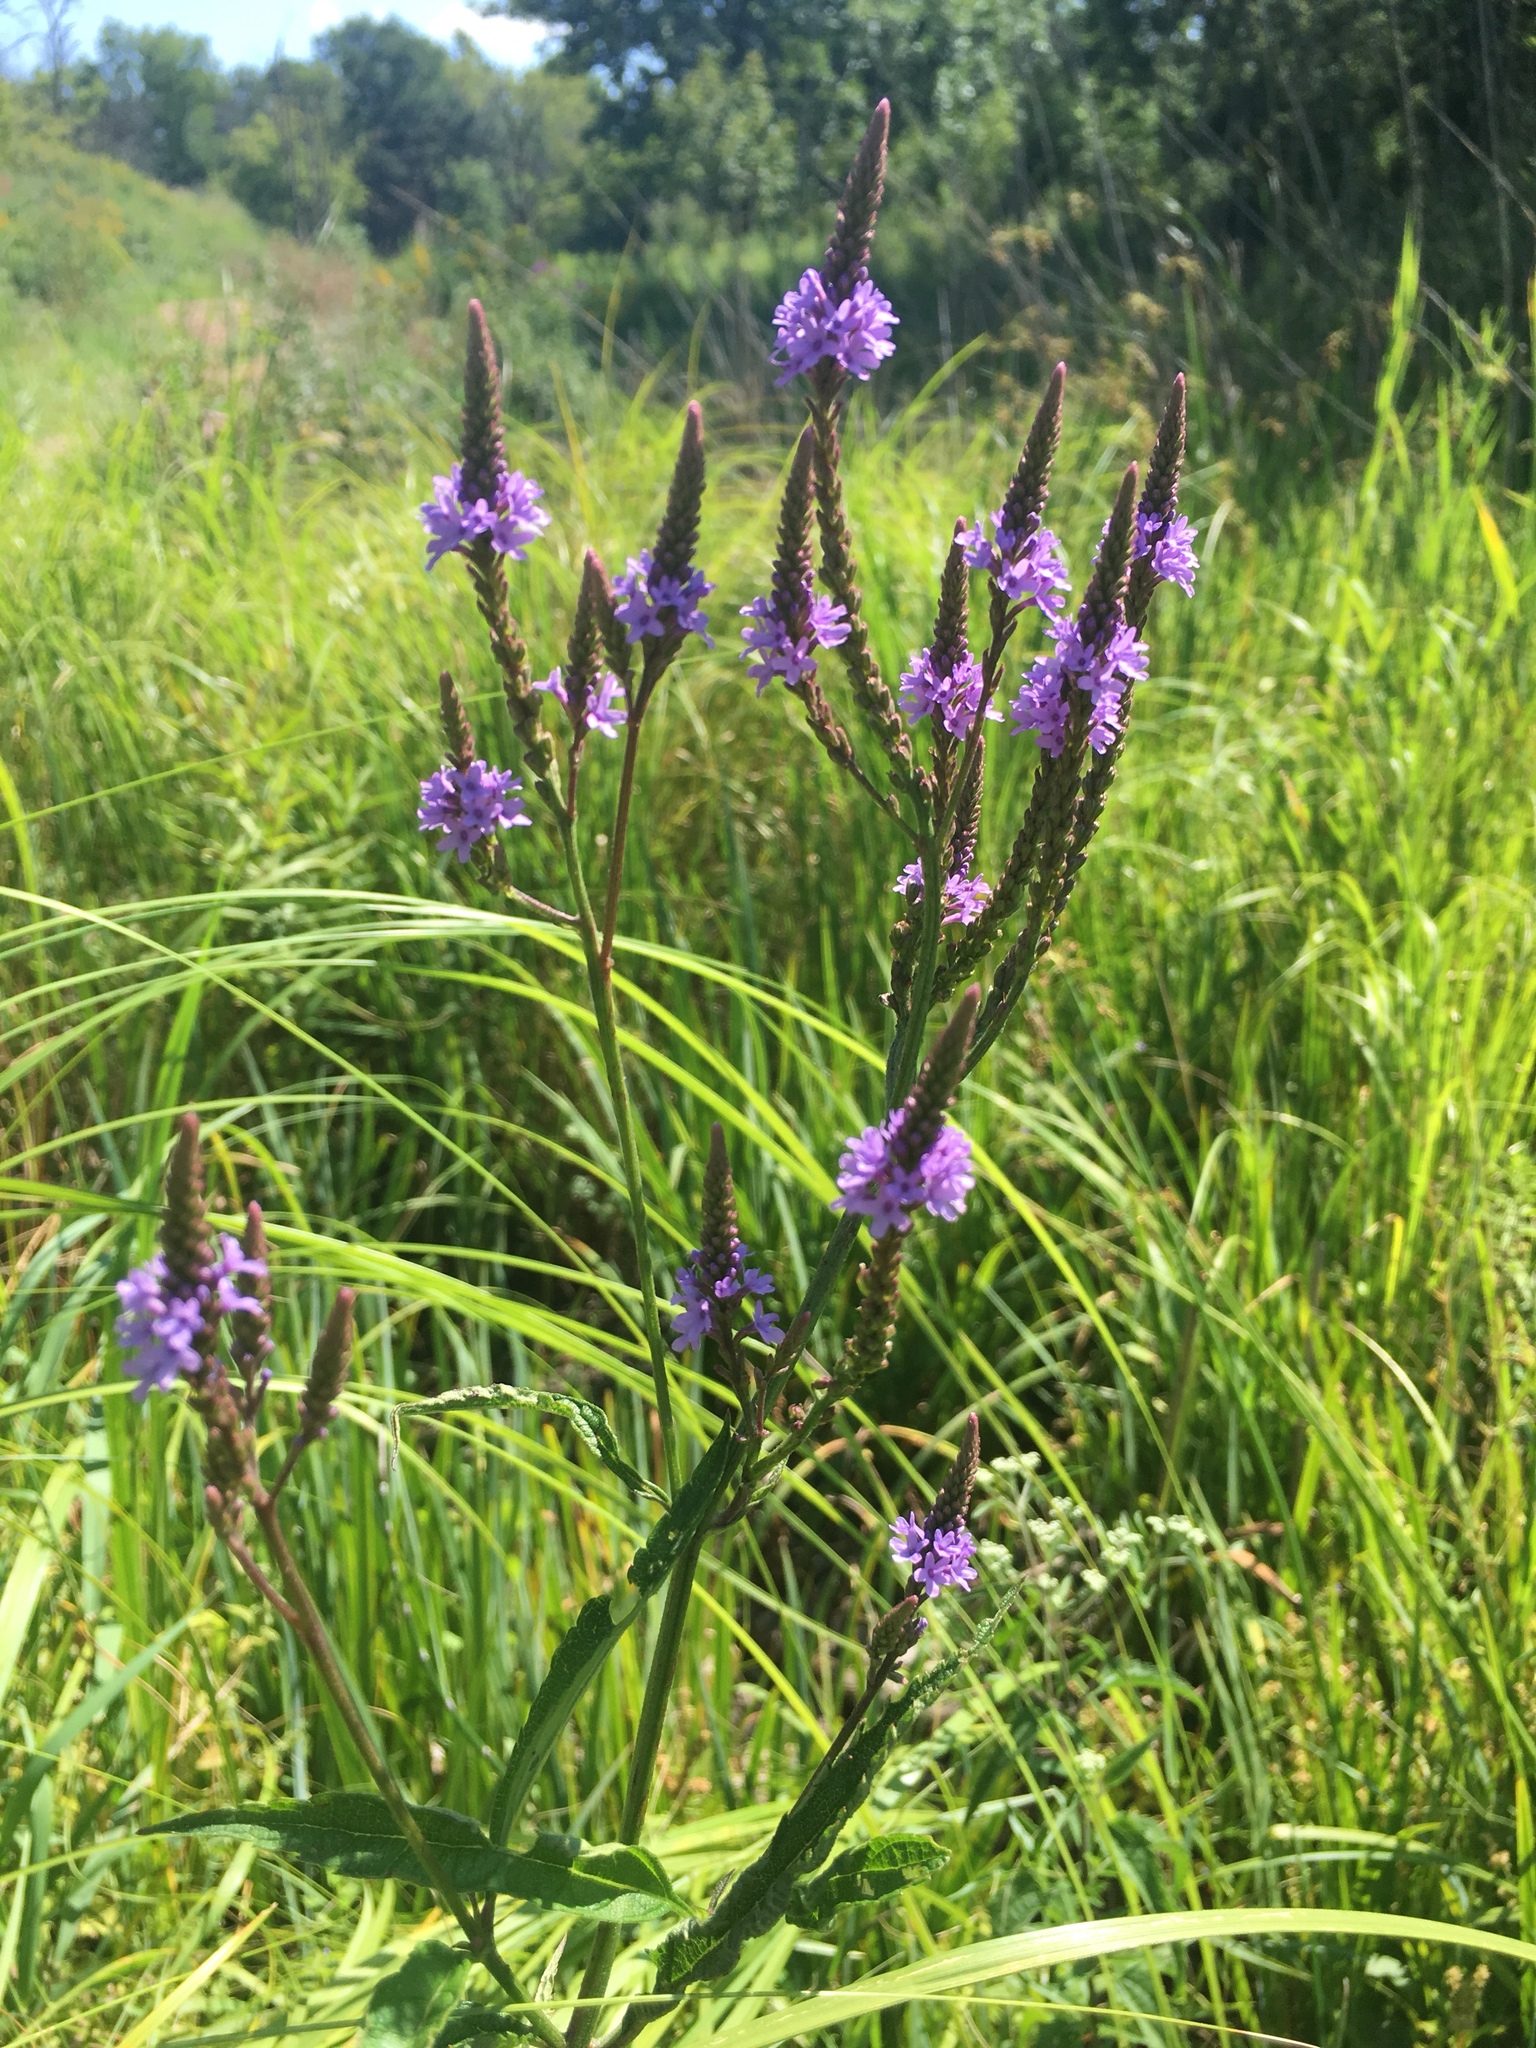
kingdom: Plantae
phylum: Tracheophyta
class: Magnoliopsida
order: Lamiales
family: Verbenaceae
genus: Verbena
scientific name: Verbena hastata
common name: American blue vervain
